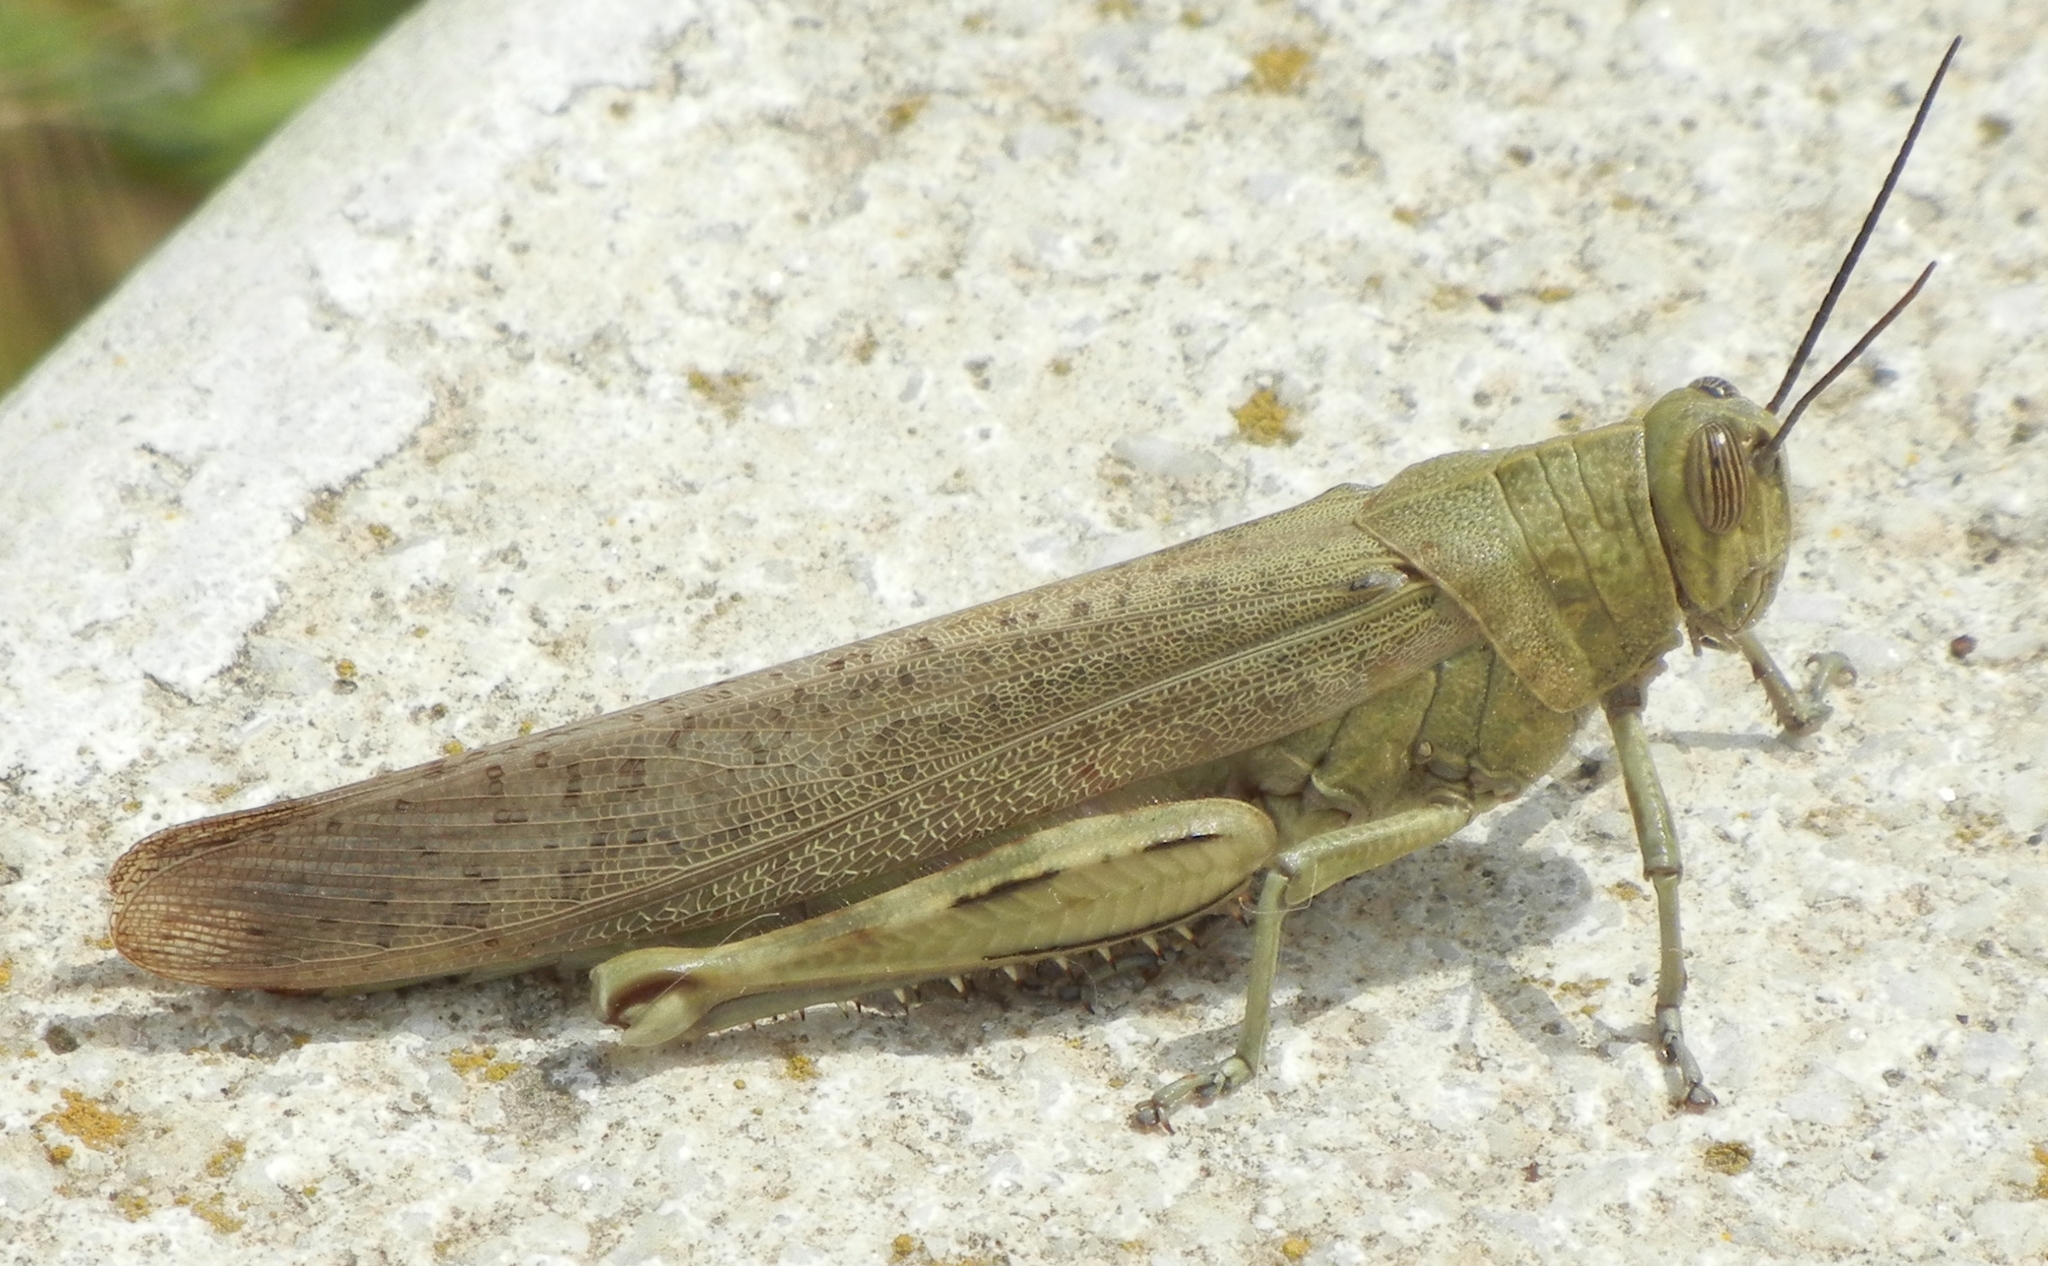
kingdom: Animalia
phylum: Arthropoda
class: Insecta
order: Orthoptera
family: Acrididae
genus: Anacridium
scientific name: Anacridium aegyptium
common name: Egyptian grasshopper
